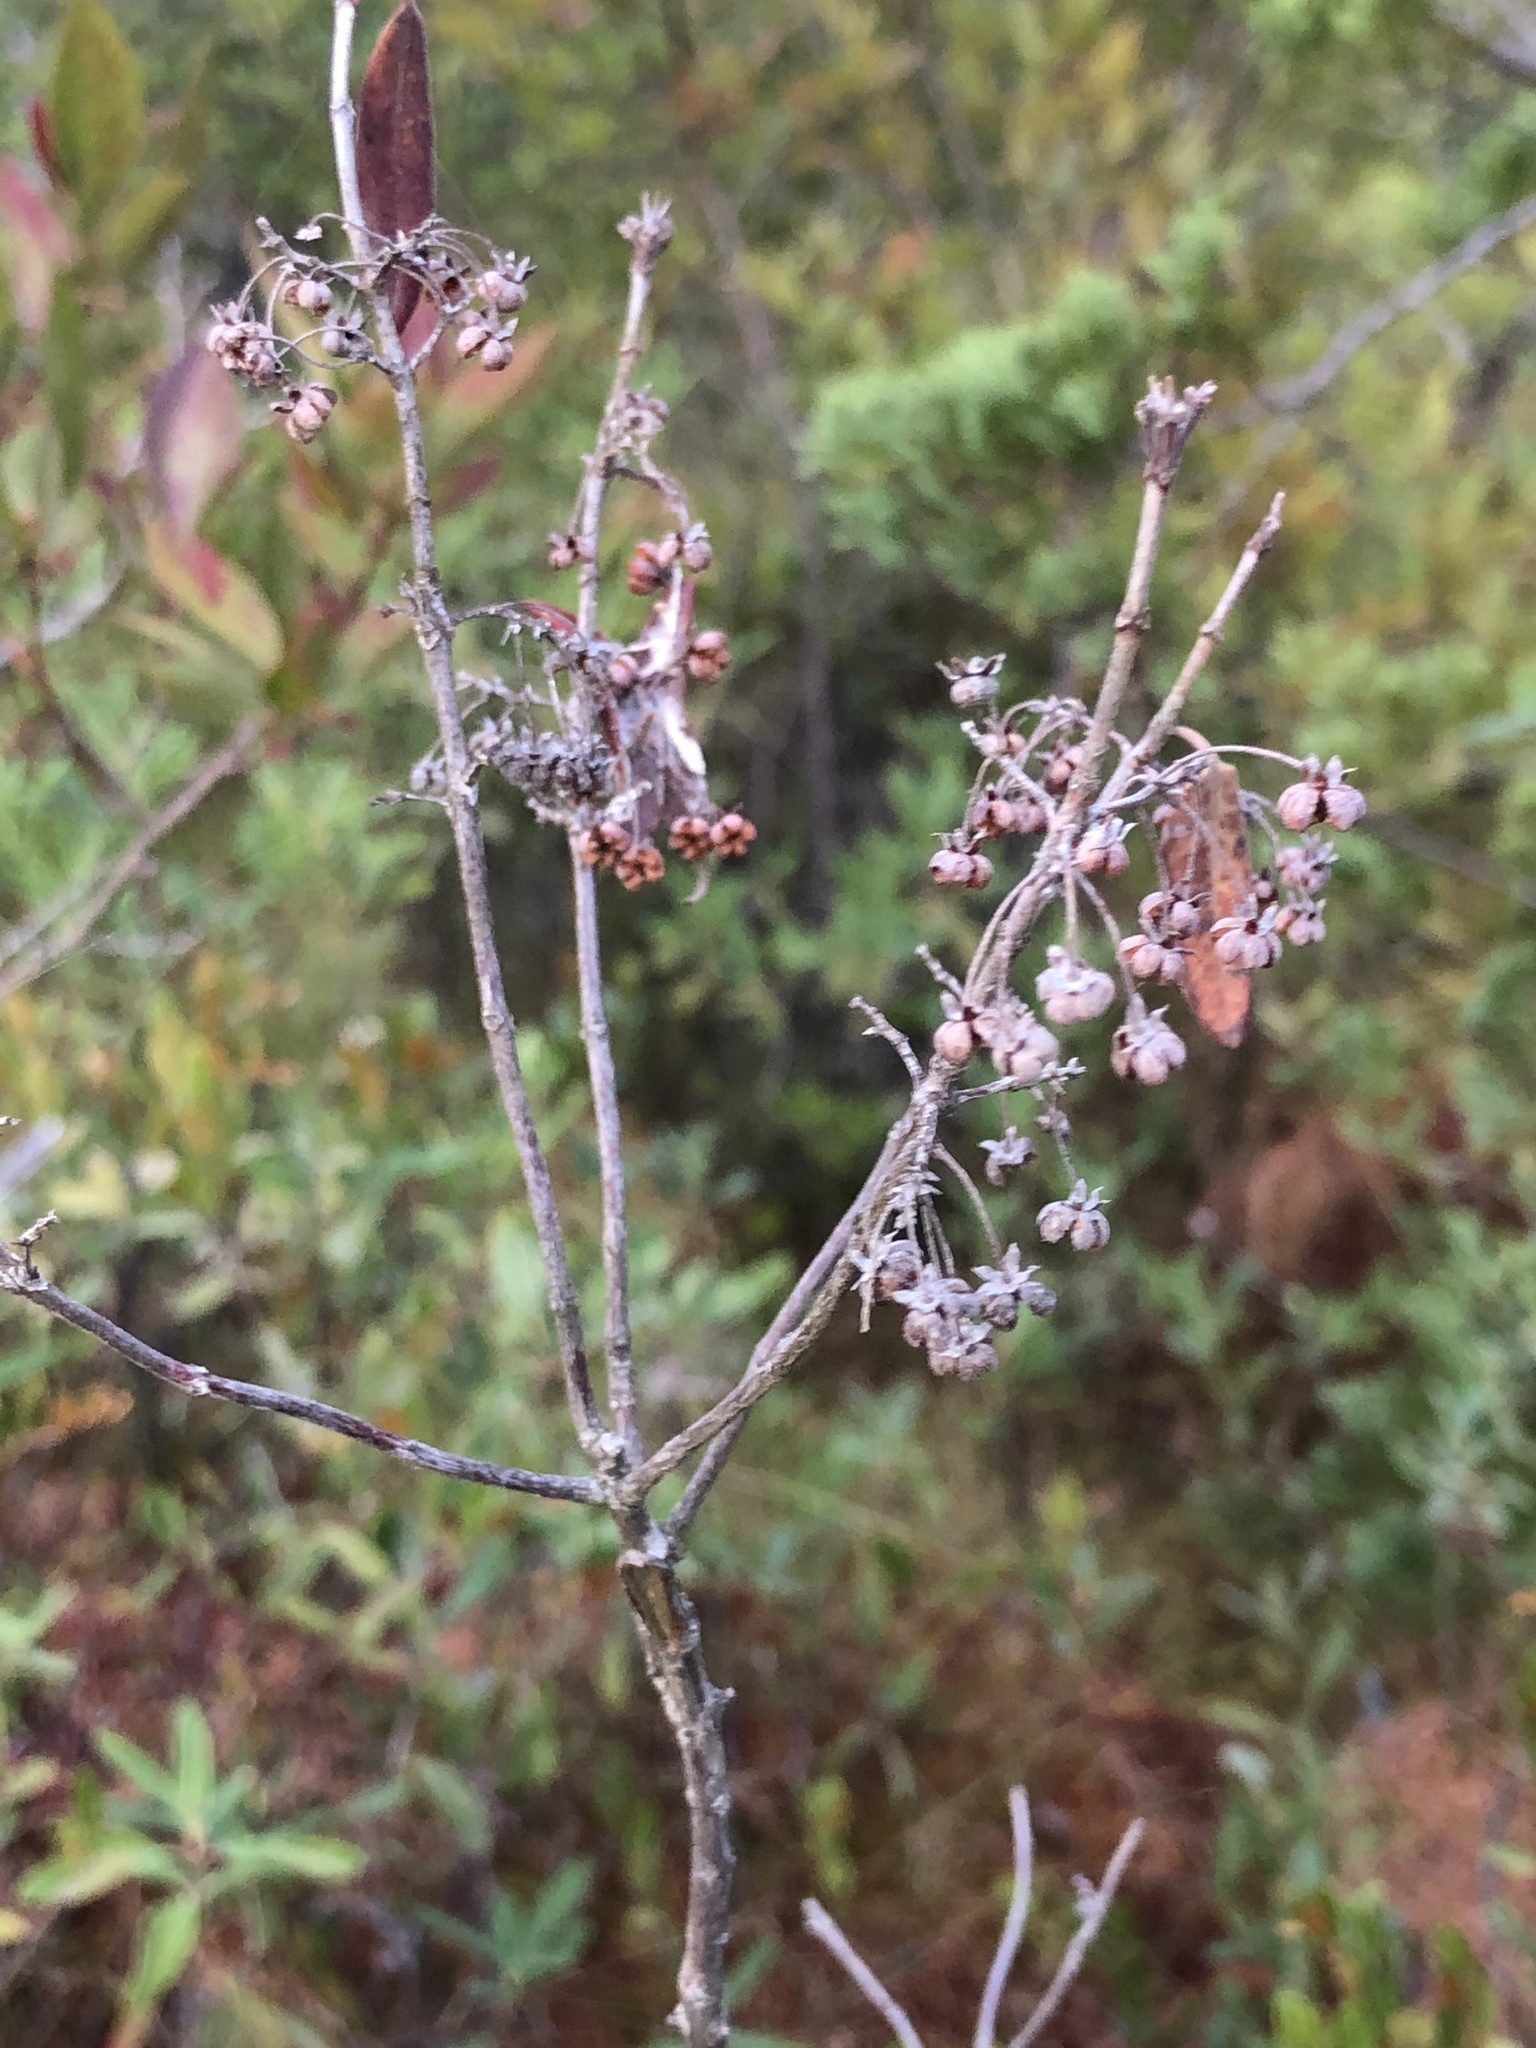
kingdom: Plantae
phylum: Tracheophyta
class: Magnoliopsida
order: Ericales
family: Ericaceae
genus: Kalmia
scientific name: Kalmia angustifolia
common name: Sheep-laurel
